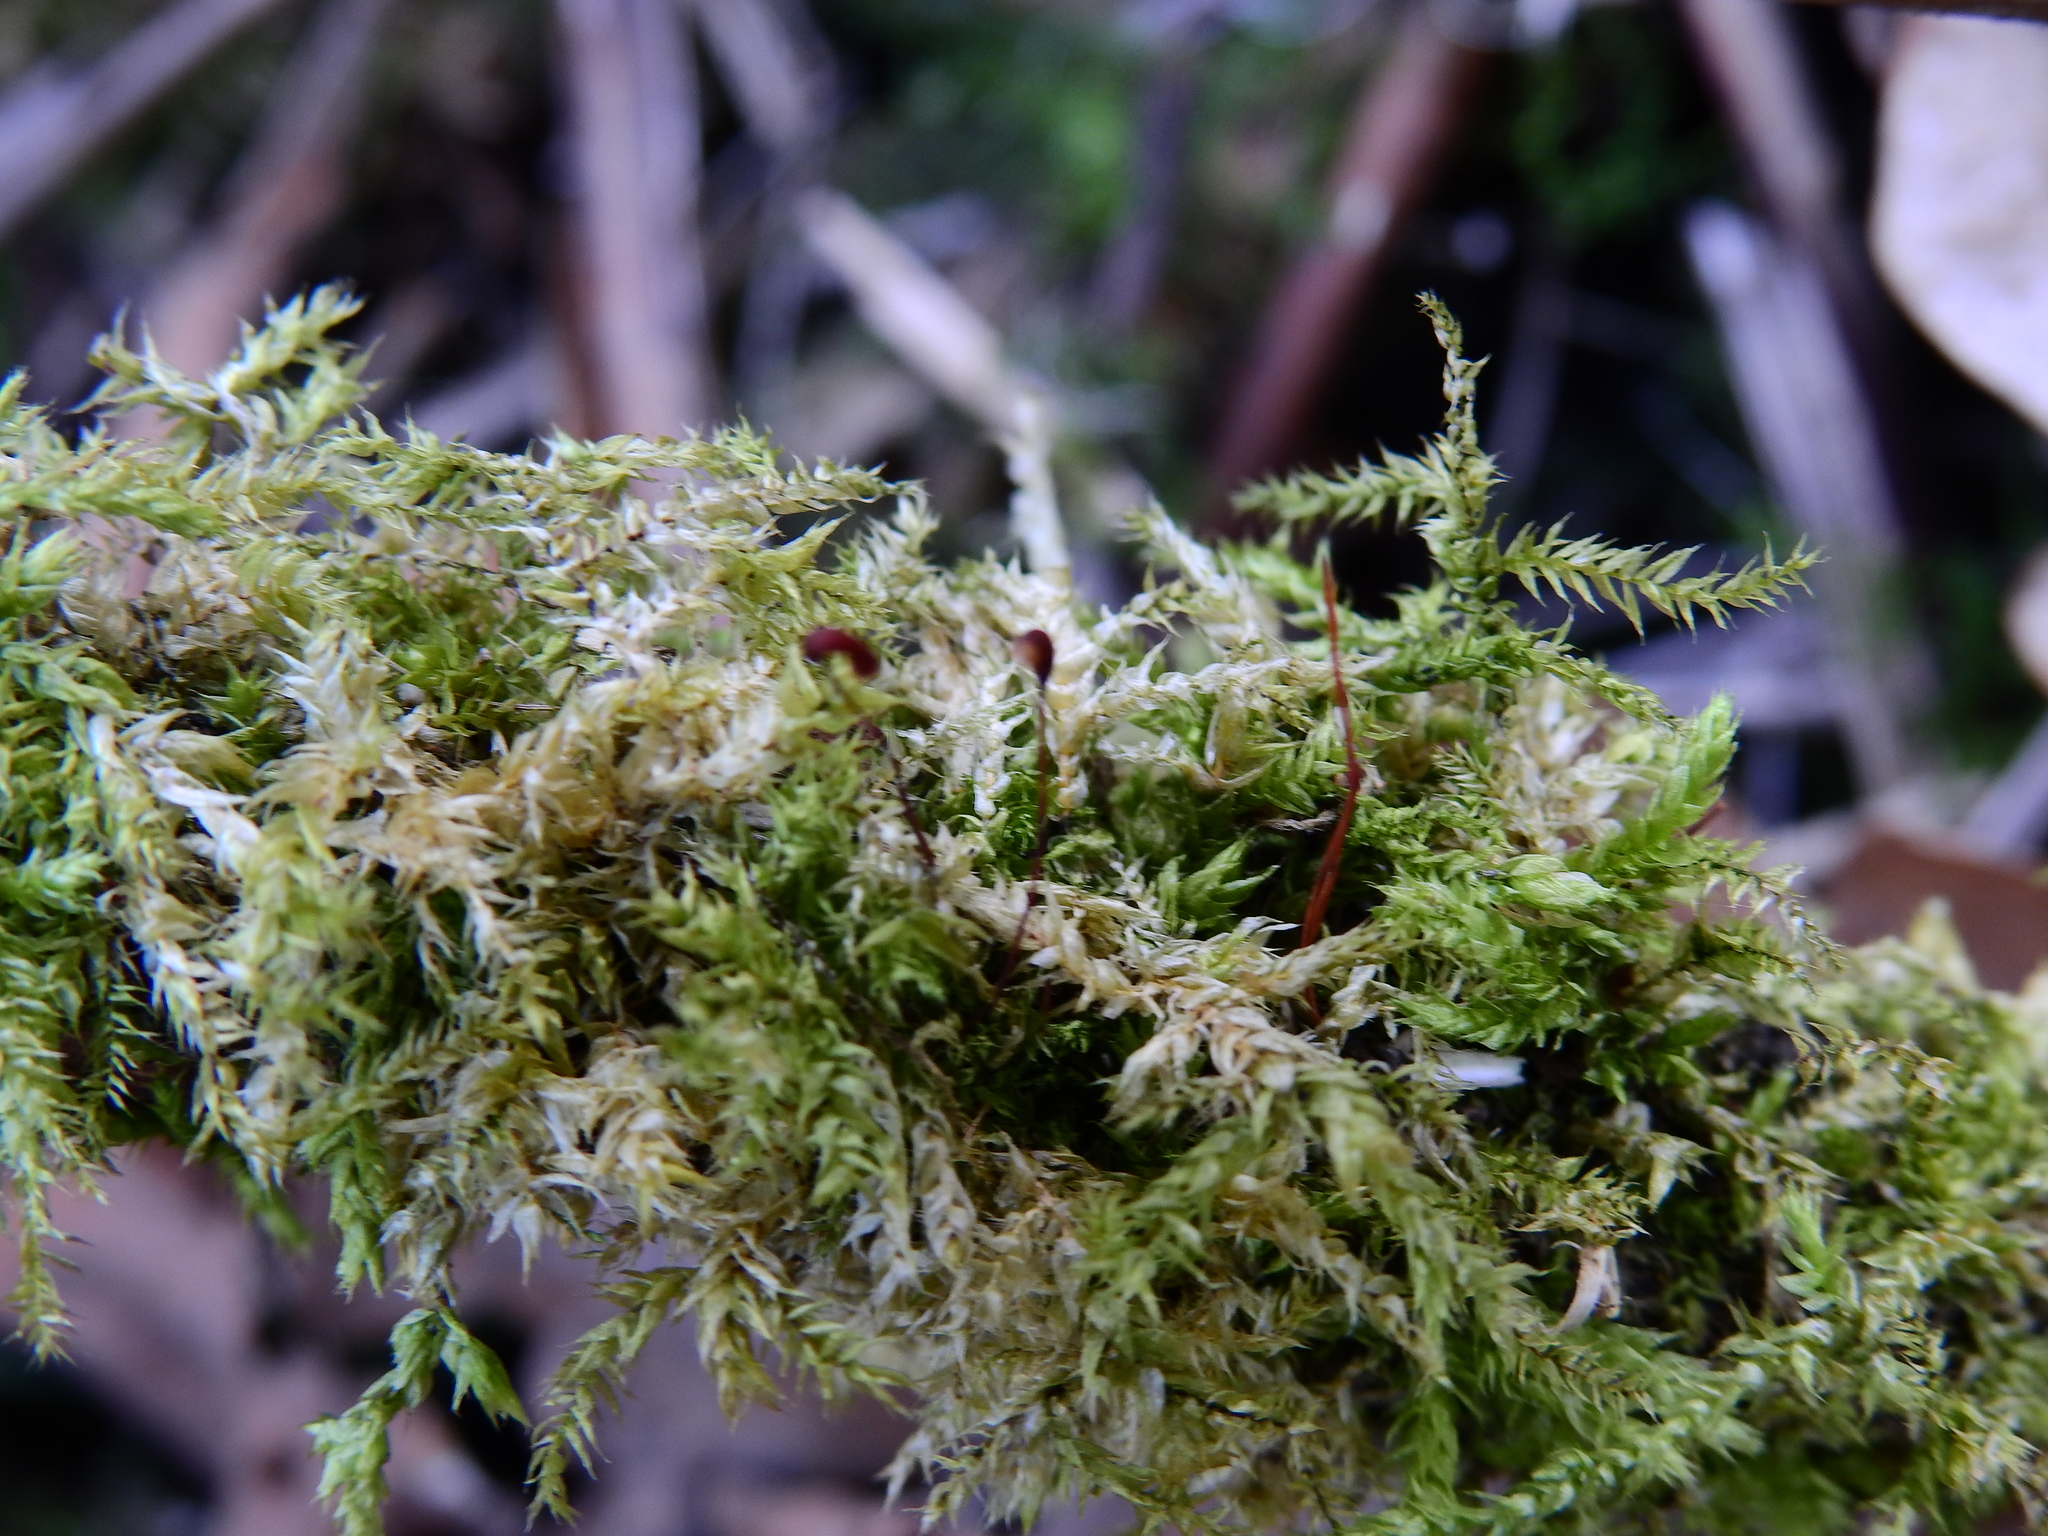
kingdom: Plantae
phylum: Bryophyta
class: Bryopsida
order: Hypnales
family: Brachytheciaceae
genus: Brachythecium
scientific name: Brachythecium rutabulum
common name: Rough-stalked feather-moss
